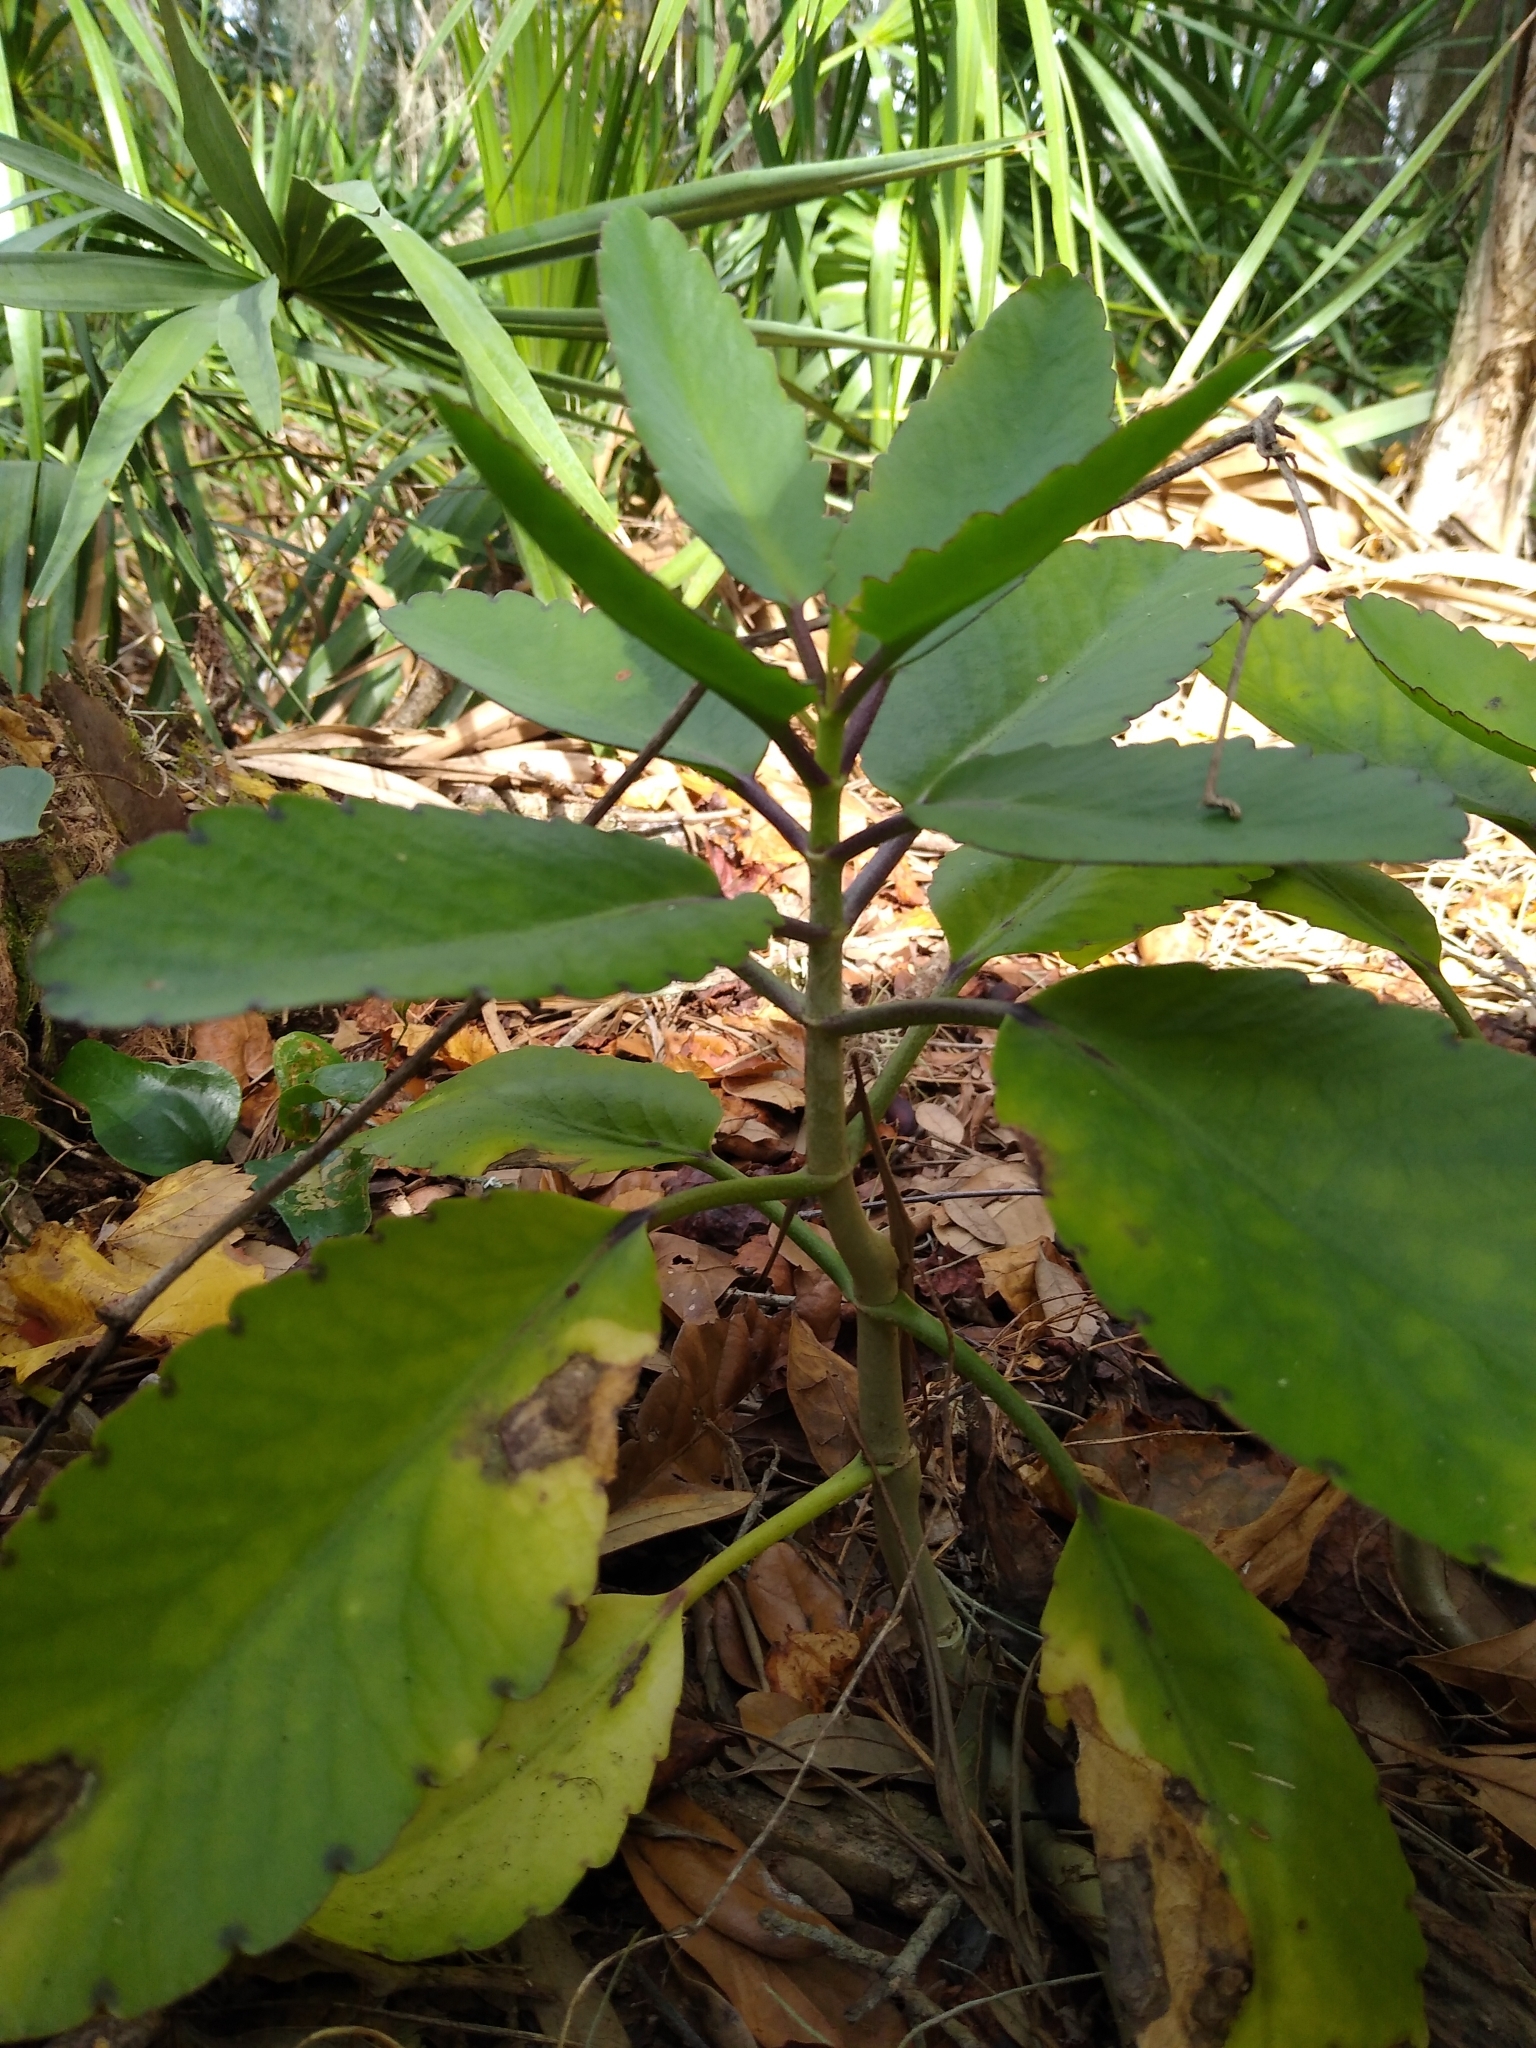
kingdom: Plantae
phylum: Tracheophyta
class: Magnoliopsida
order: Saxifragales
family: Crassulaceae
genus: Kalanchoe
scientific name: Kalanchoe pinnata
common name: Cathedral bells
